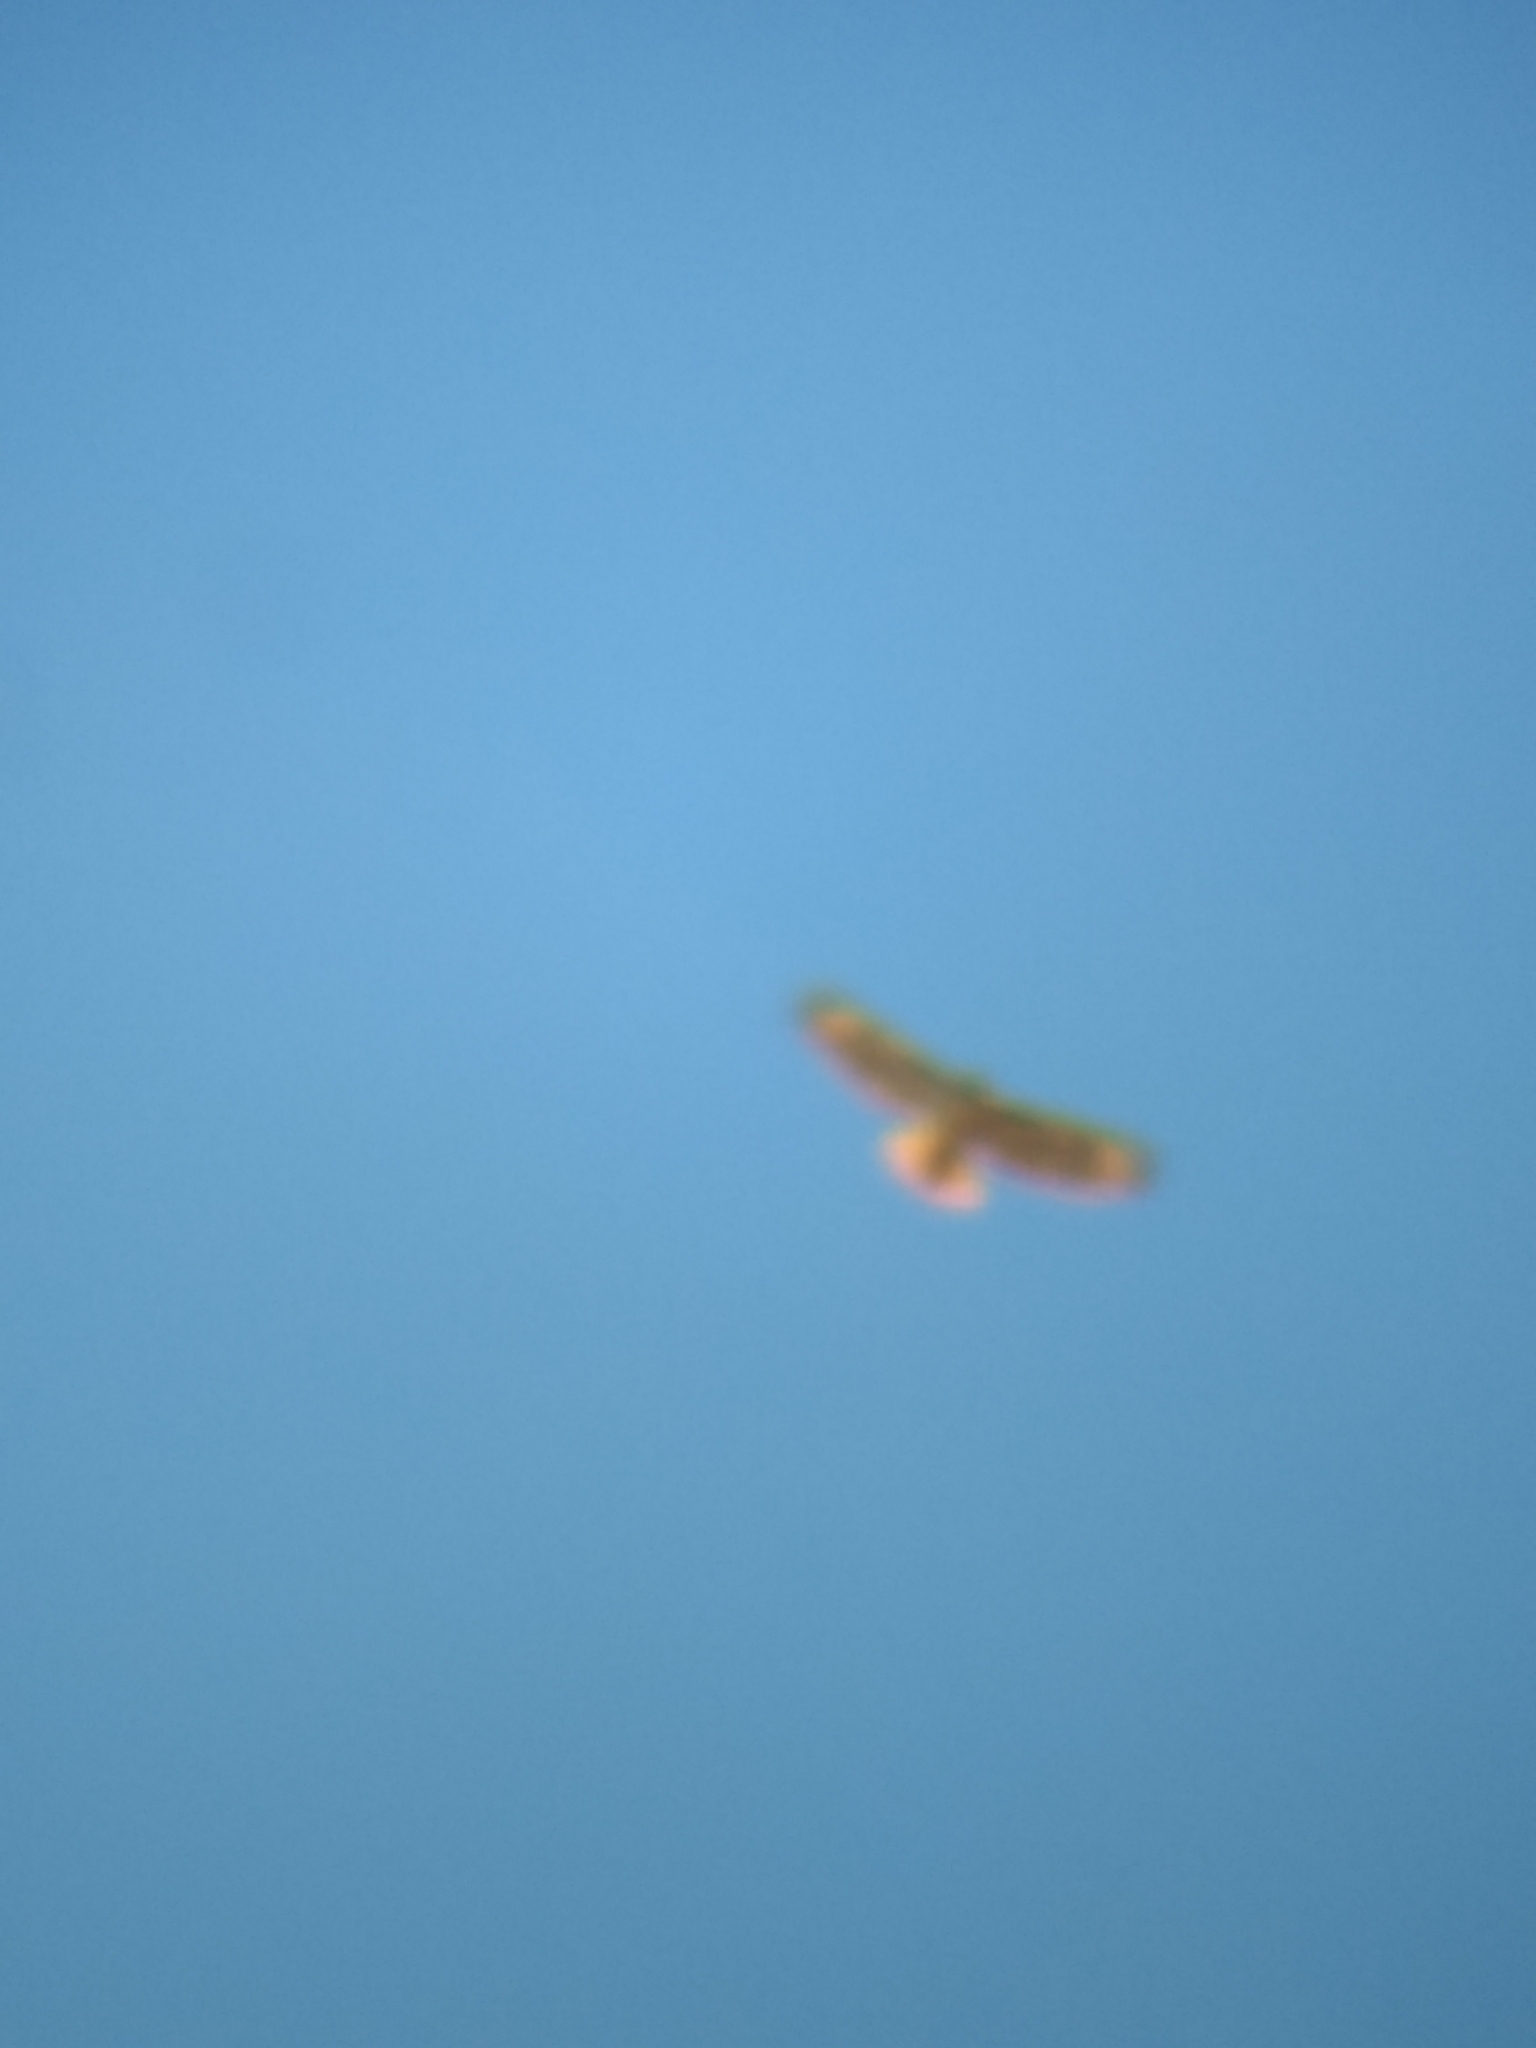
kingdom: Animalia
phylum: Chordata
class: Aves
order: Accipitriformes
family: Accipitridae
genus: Buteo
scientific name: Buteo jamaicensis
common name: Red-tailed hawk
